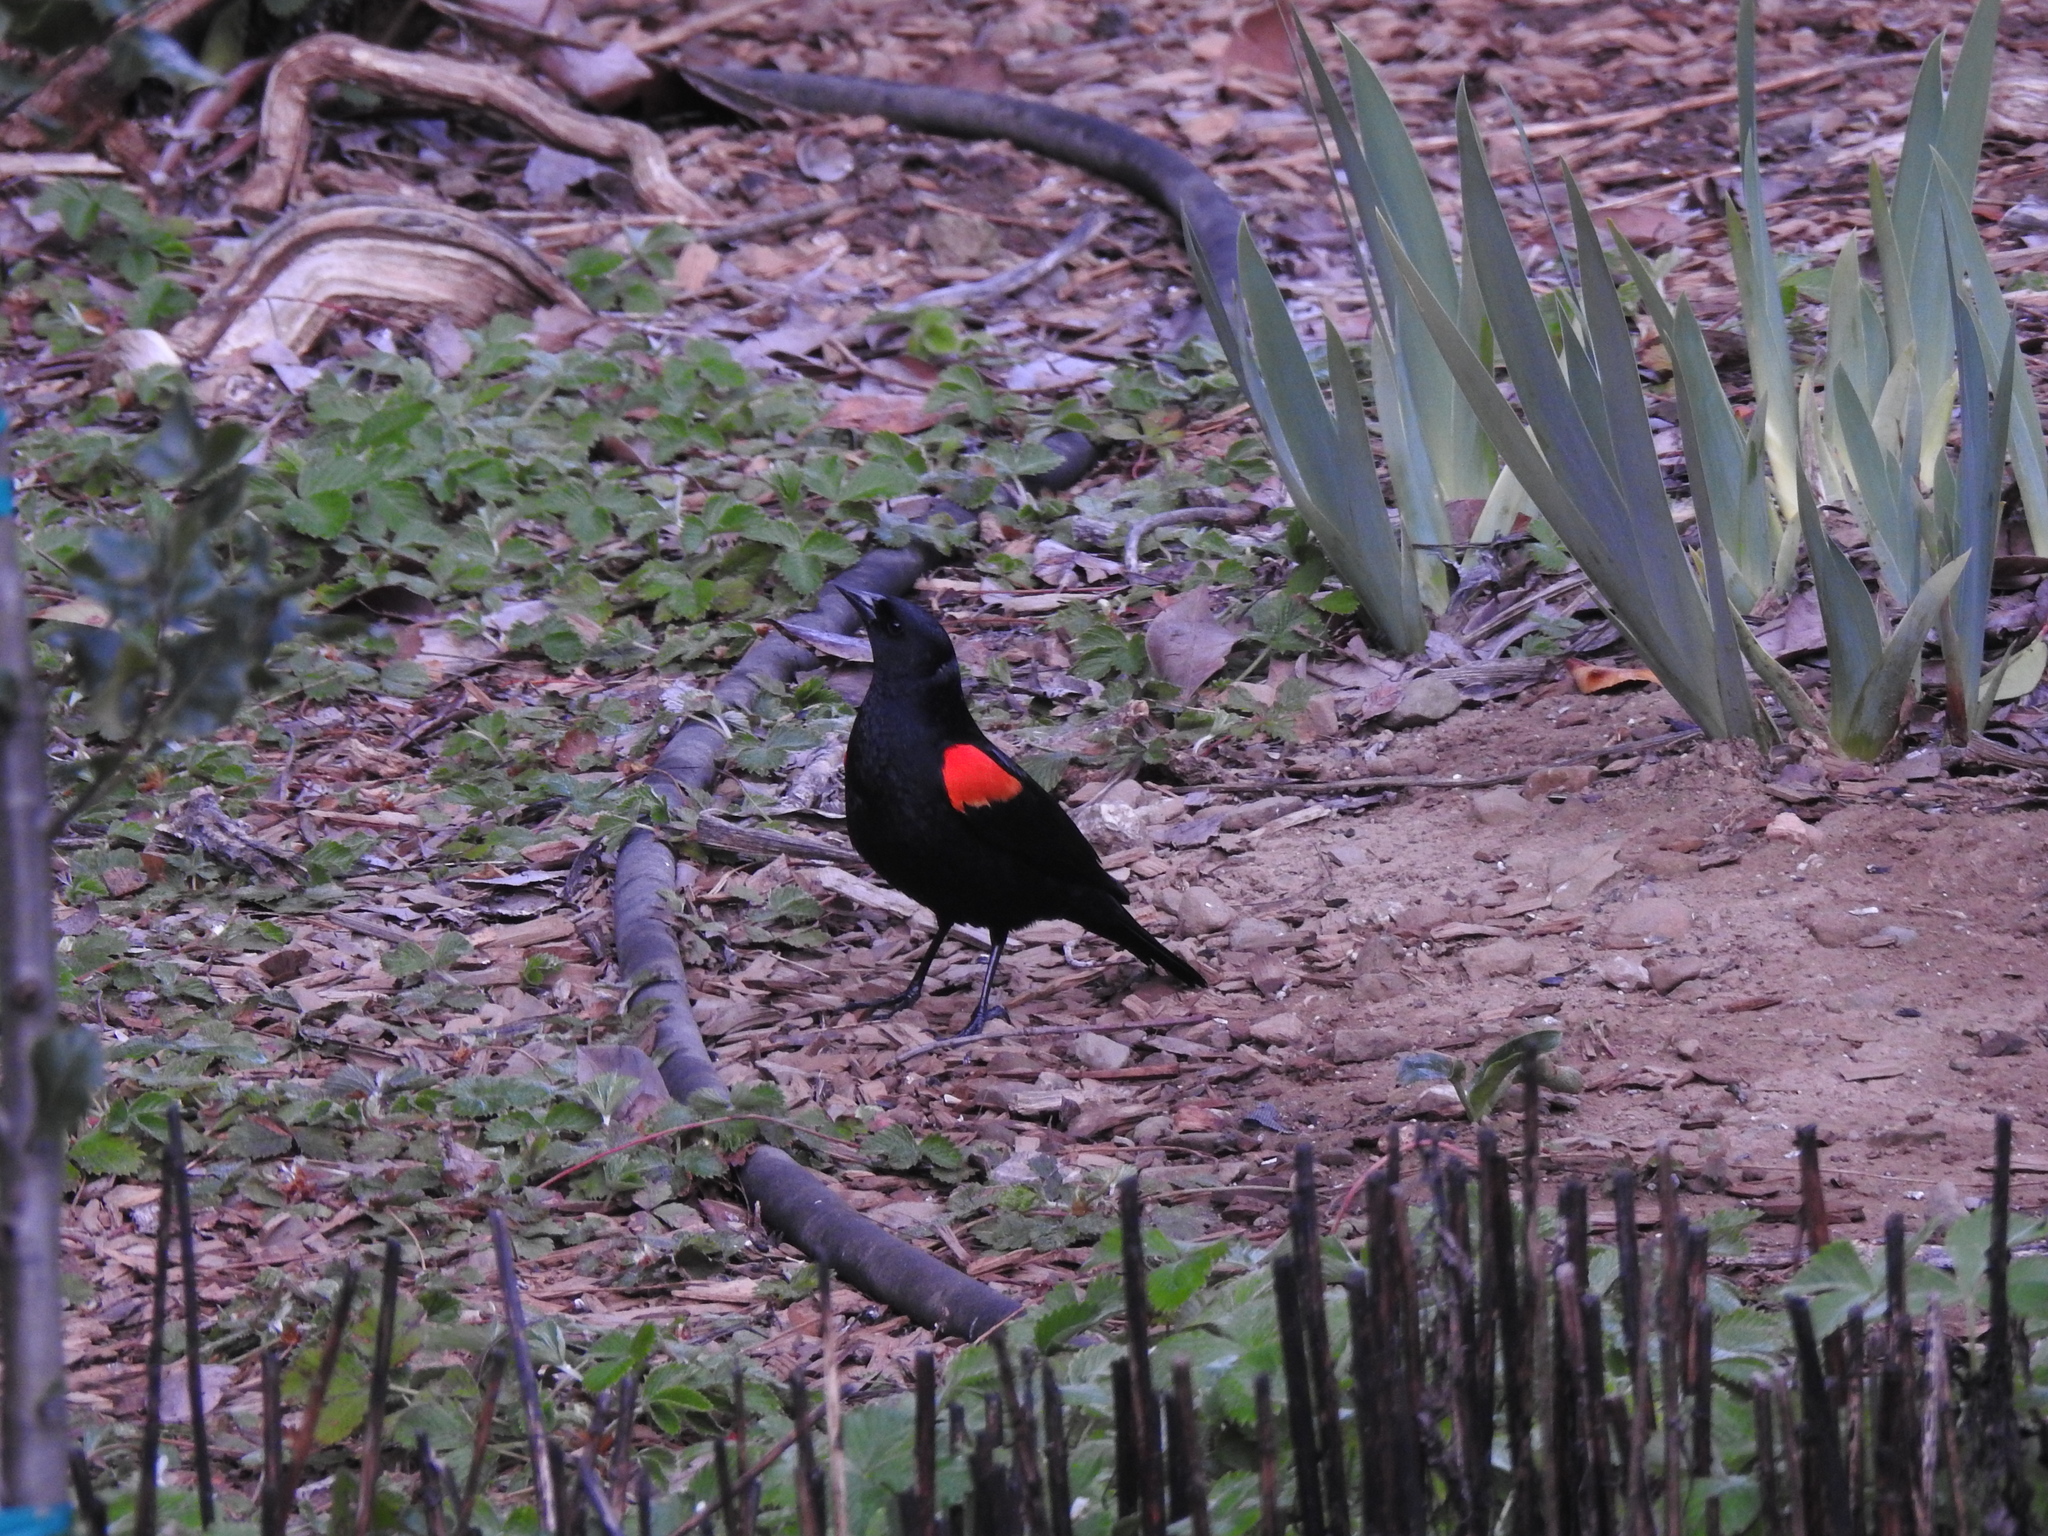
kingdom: Animalia
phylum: Chordata
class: Aves
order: Passeriformes
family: Icteridae
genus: Agelaius
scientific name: Agelaius phoeniceus
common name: Red-winged blackbird
